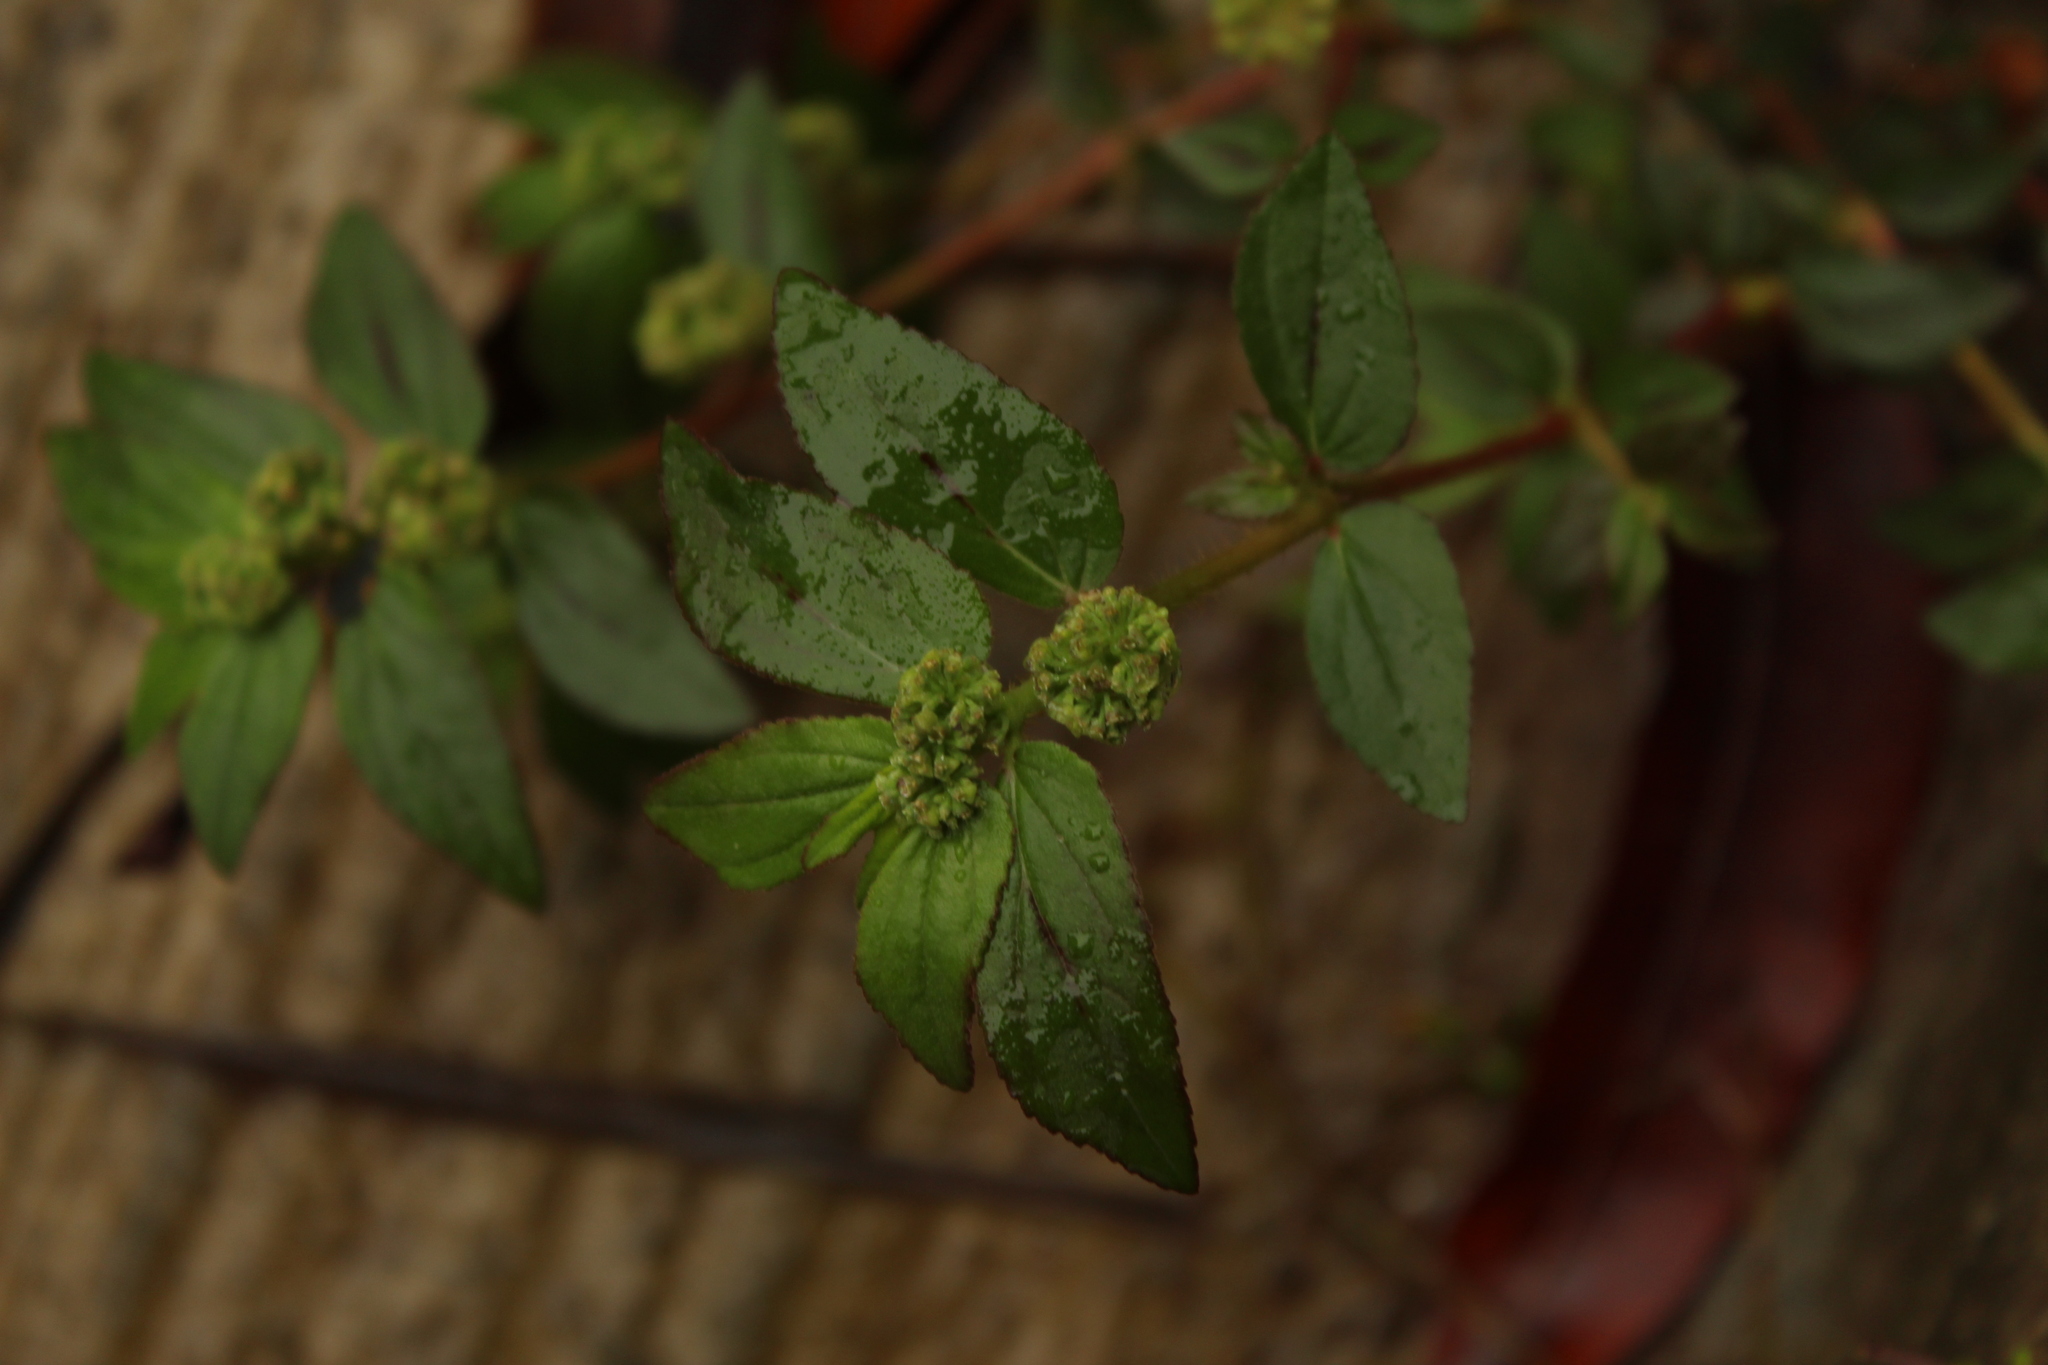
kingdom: Plantae
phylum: Tracheophyta
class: Magnoliopsida
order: Malpighiales
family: Euphorbiaceae
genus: Euphorbia
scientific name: Euphorbia hirta
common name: Pillpod sandmat
